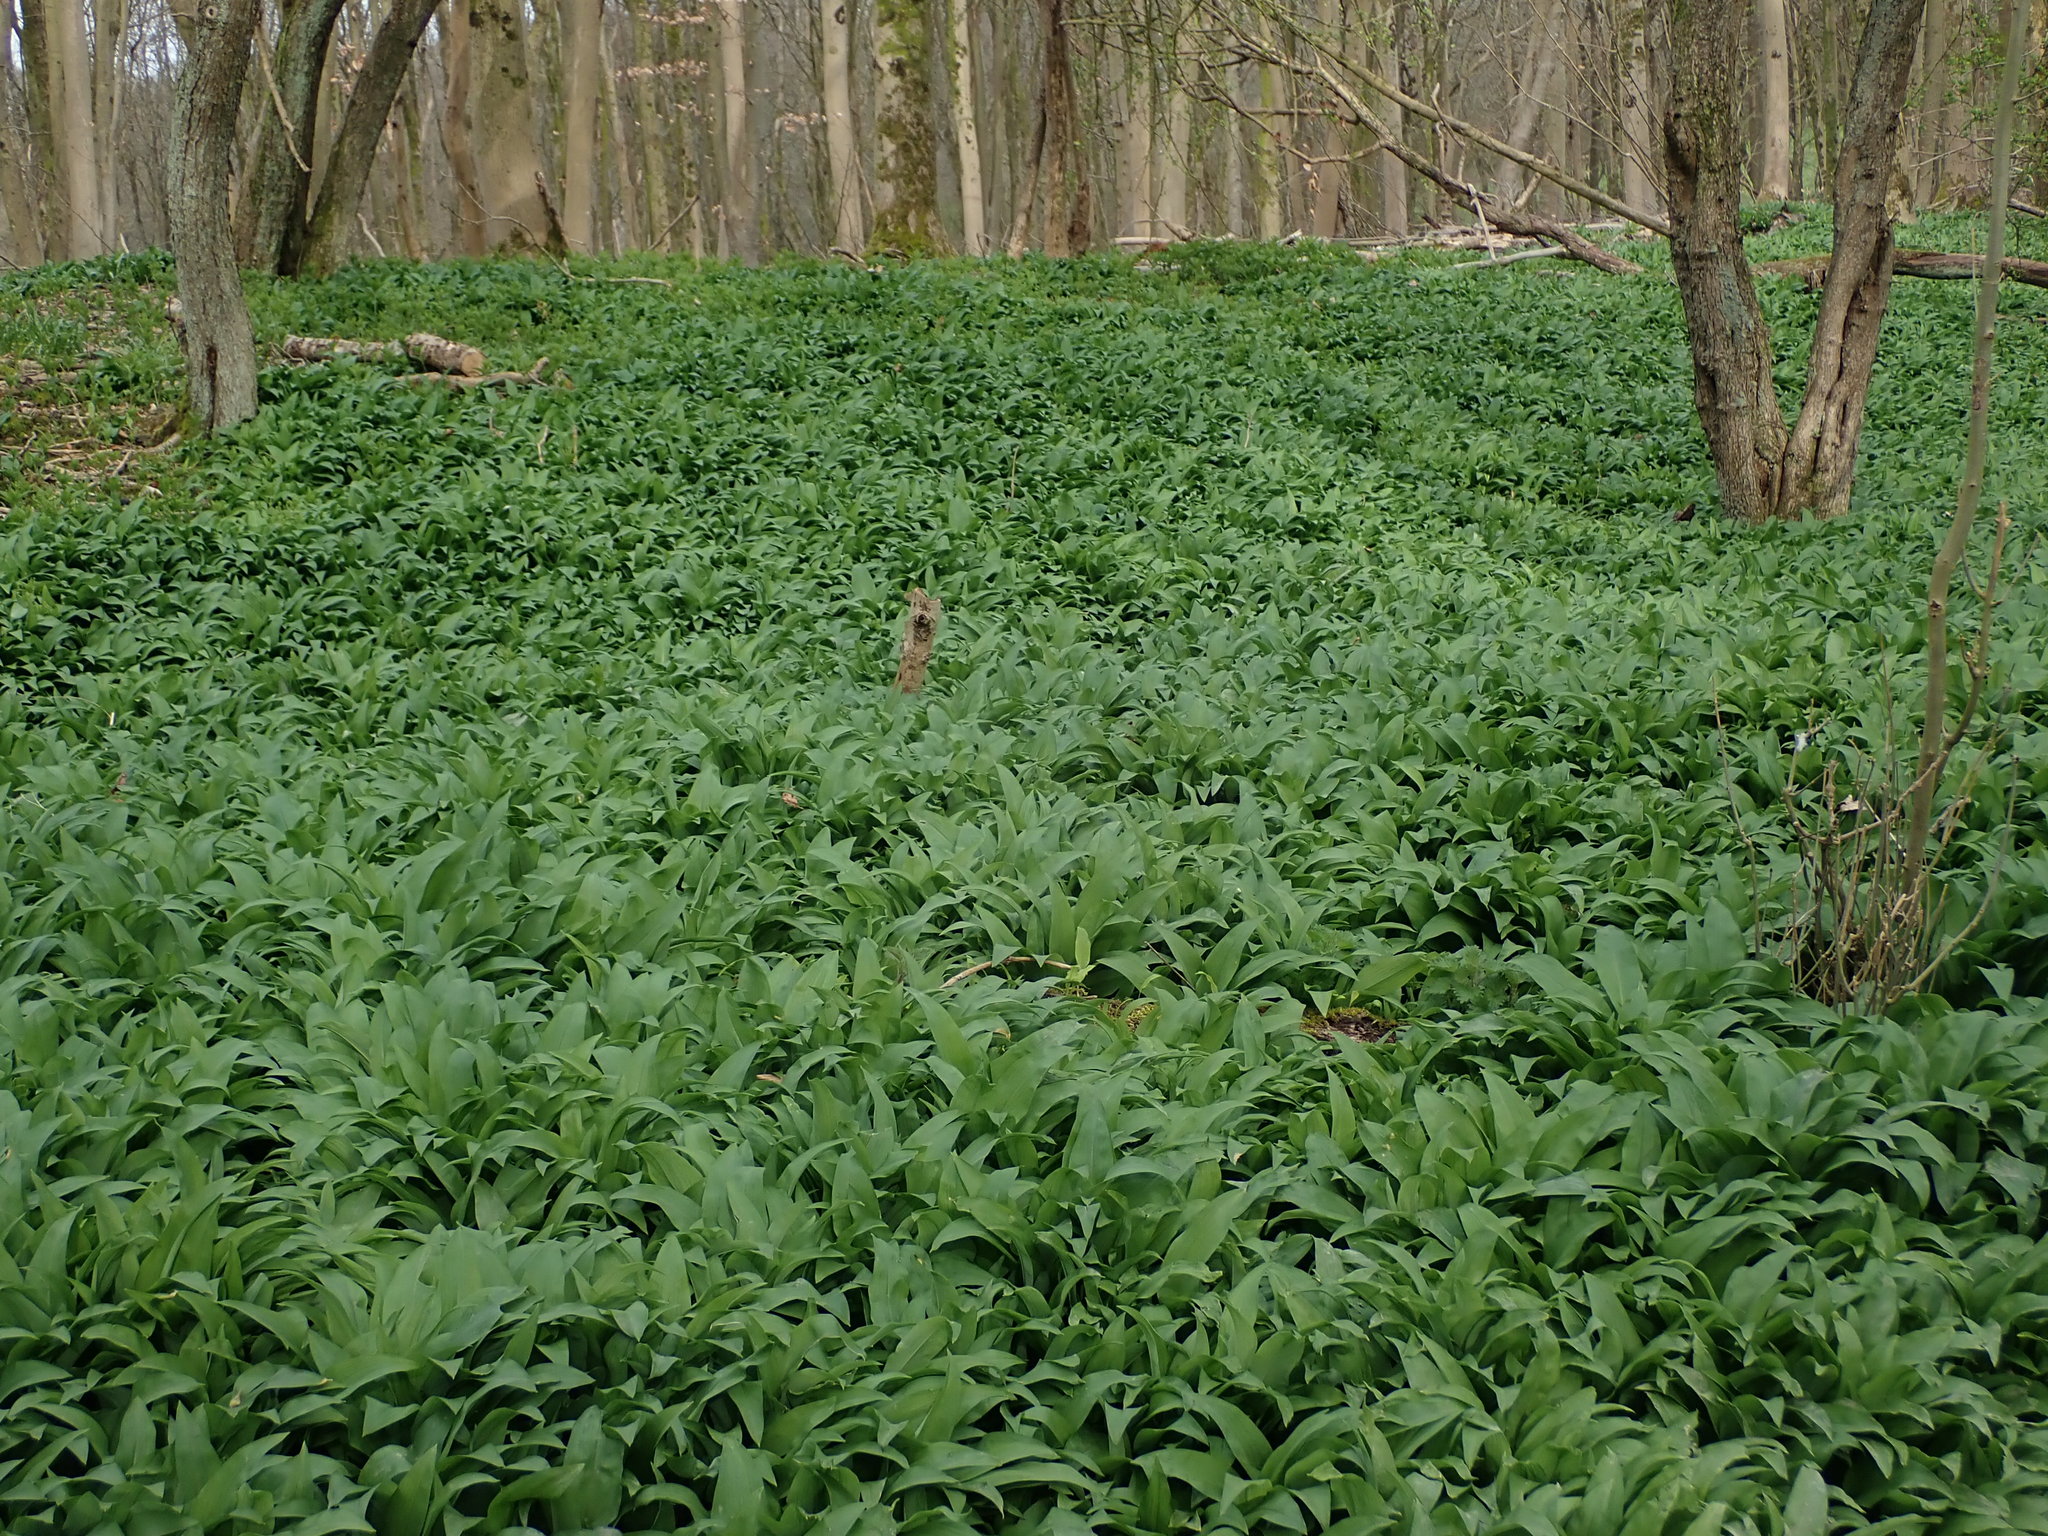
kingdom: Plantae
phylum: Tracheophyta
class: Liliopsida
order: Asparagales
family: Amaryllidaceae
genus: Allium
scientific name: Allium ursinum
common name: Ramsons
